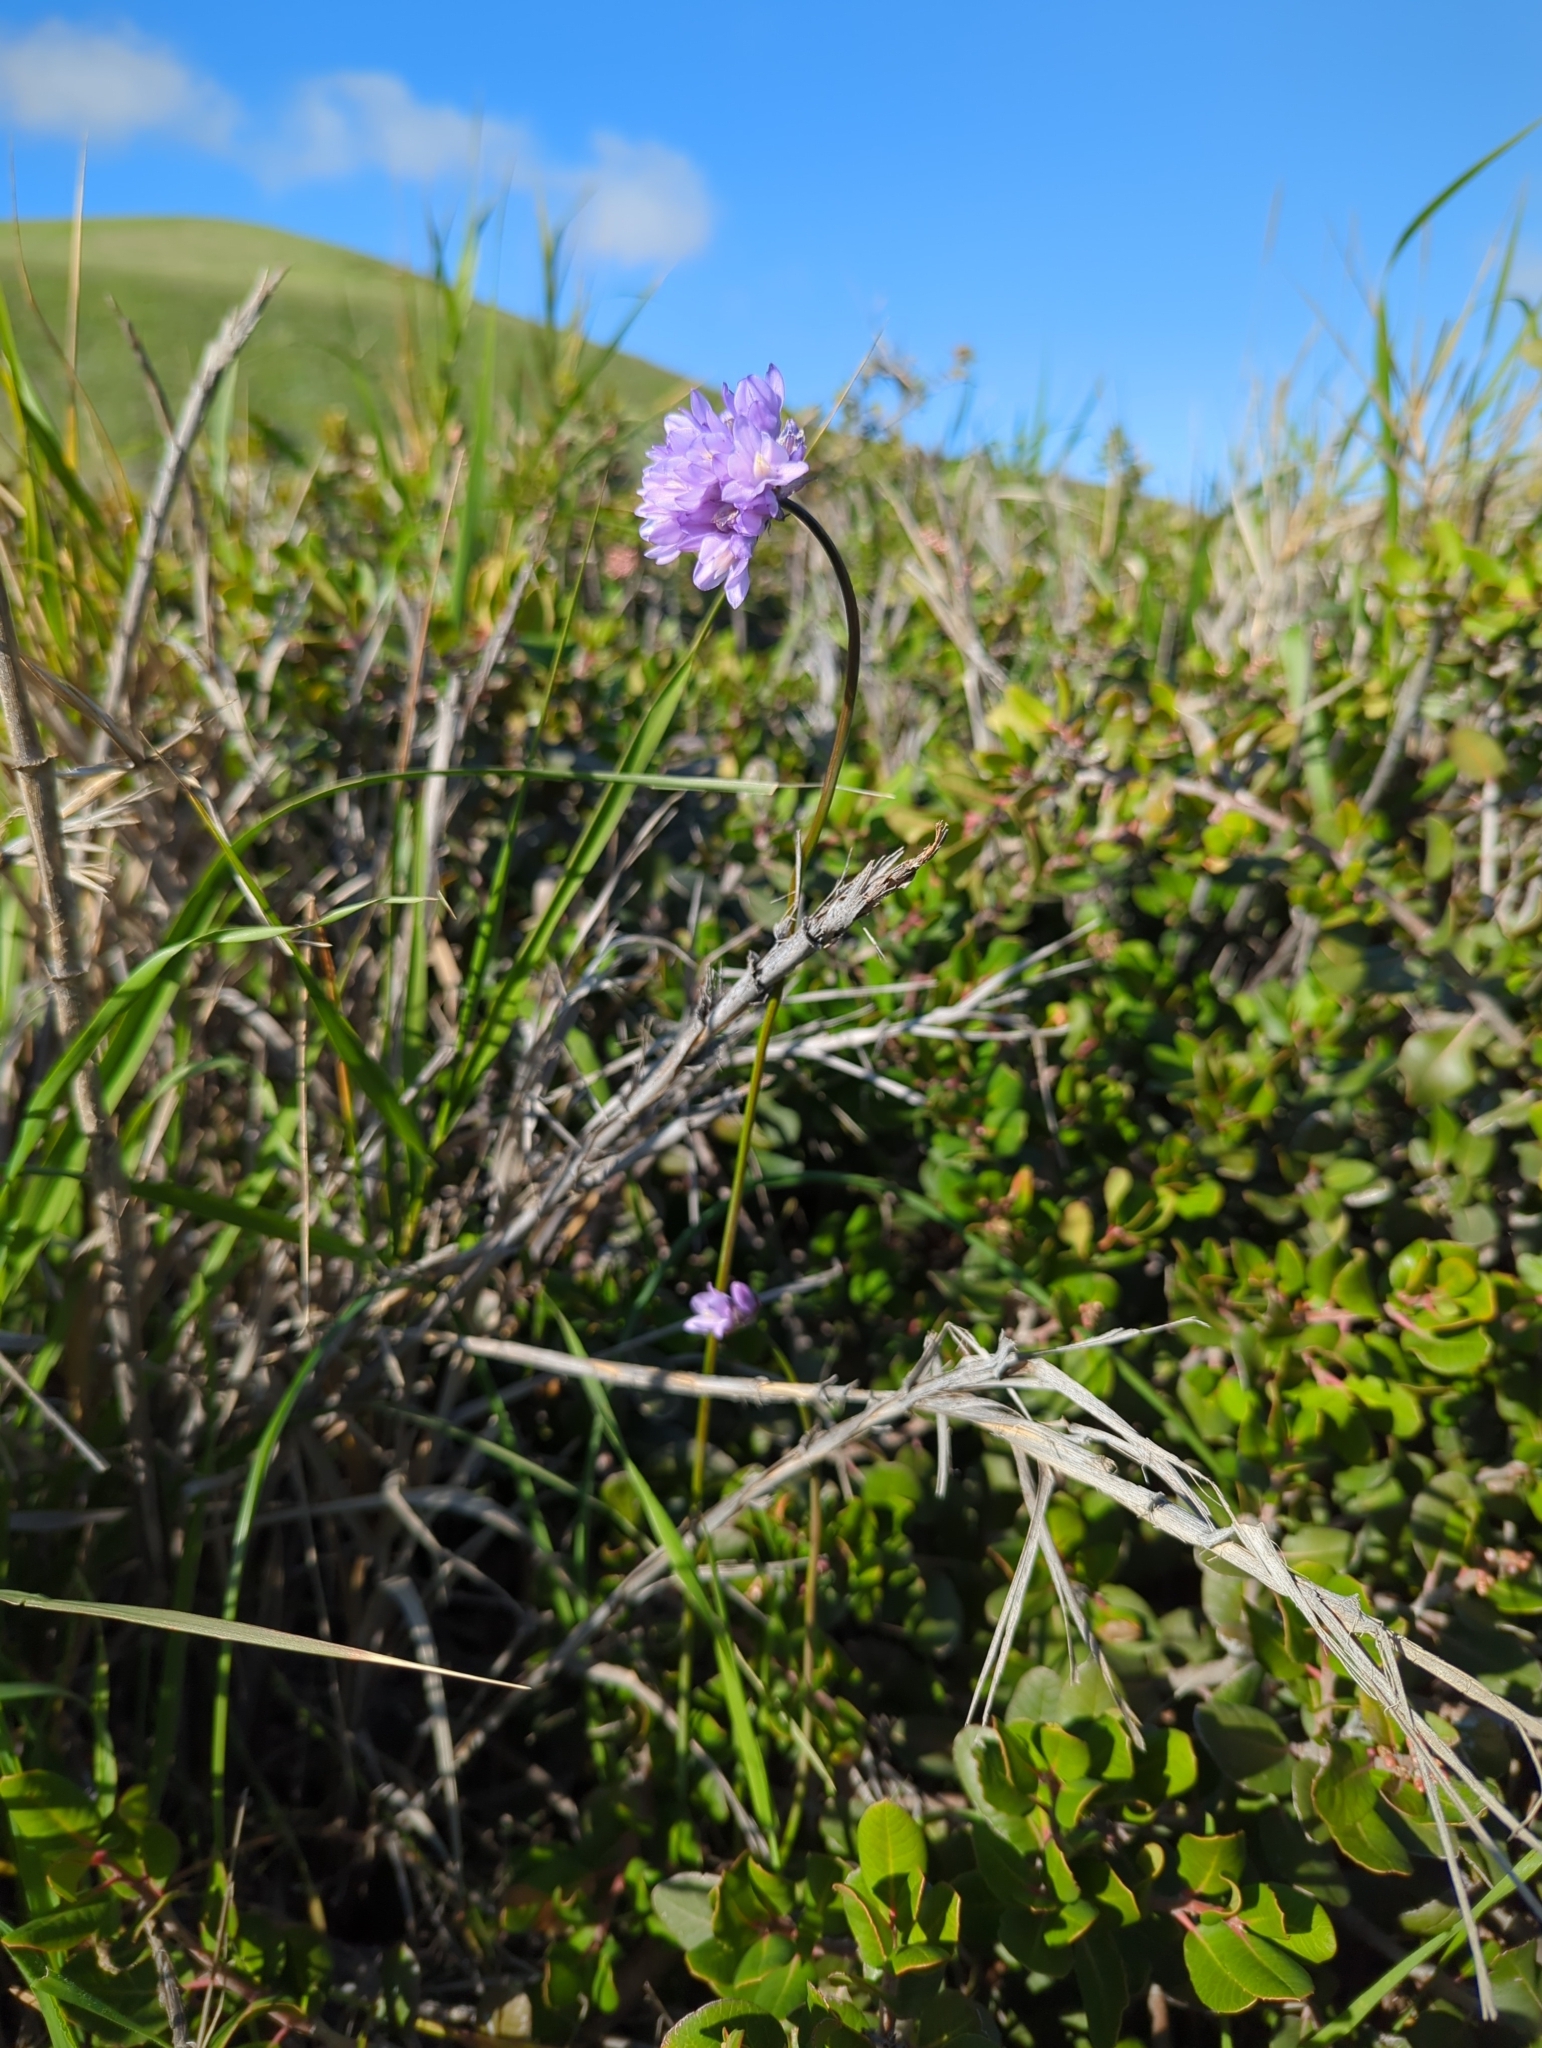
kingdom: Plantae
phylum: Tracheophyta
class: Liliopsida
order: Asparagales
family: Asparagaceae
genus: Dipterostemon
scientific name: Dipterostemon capitatus
